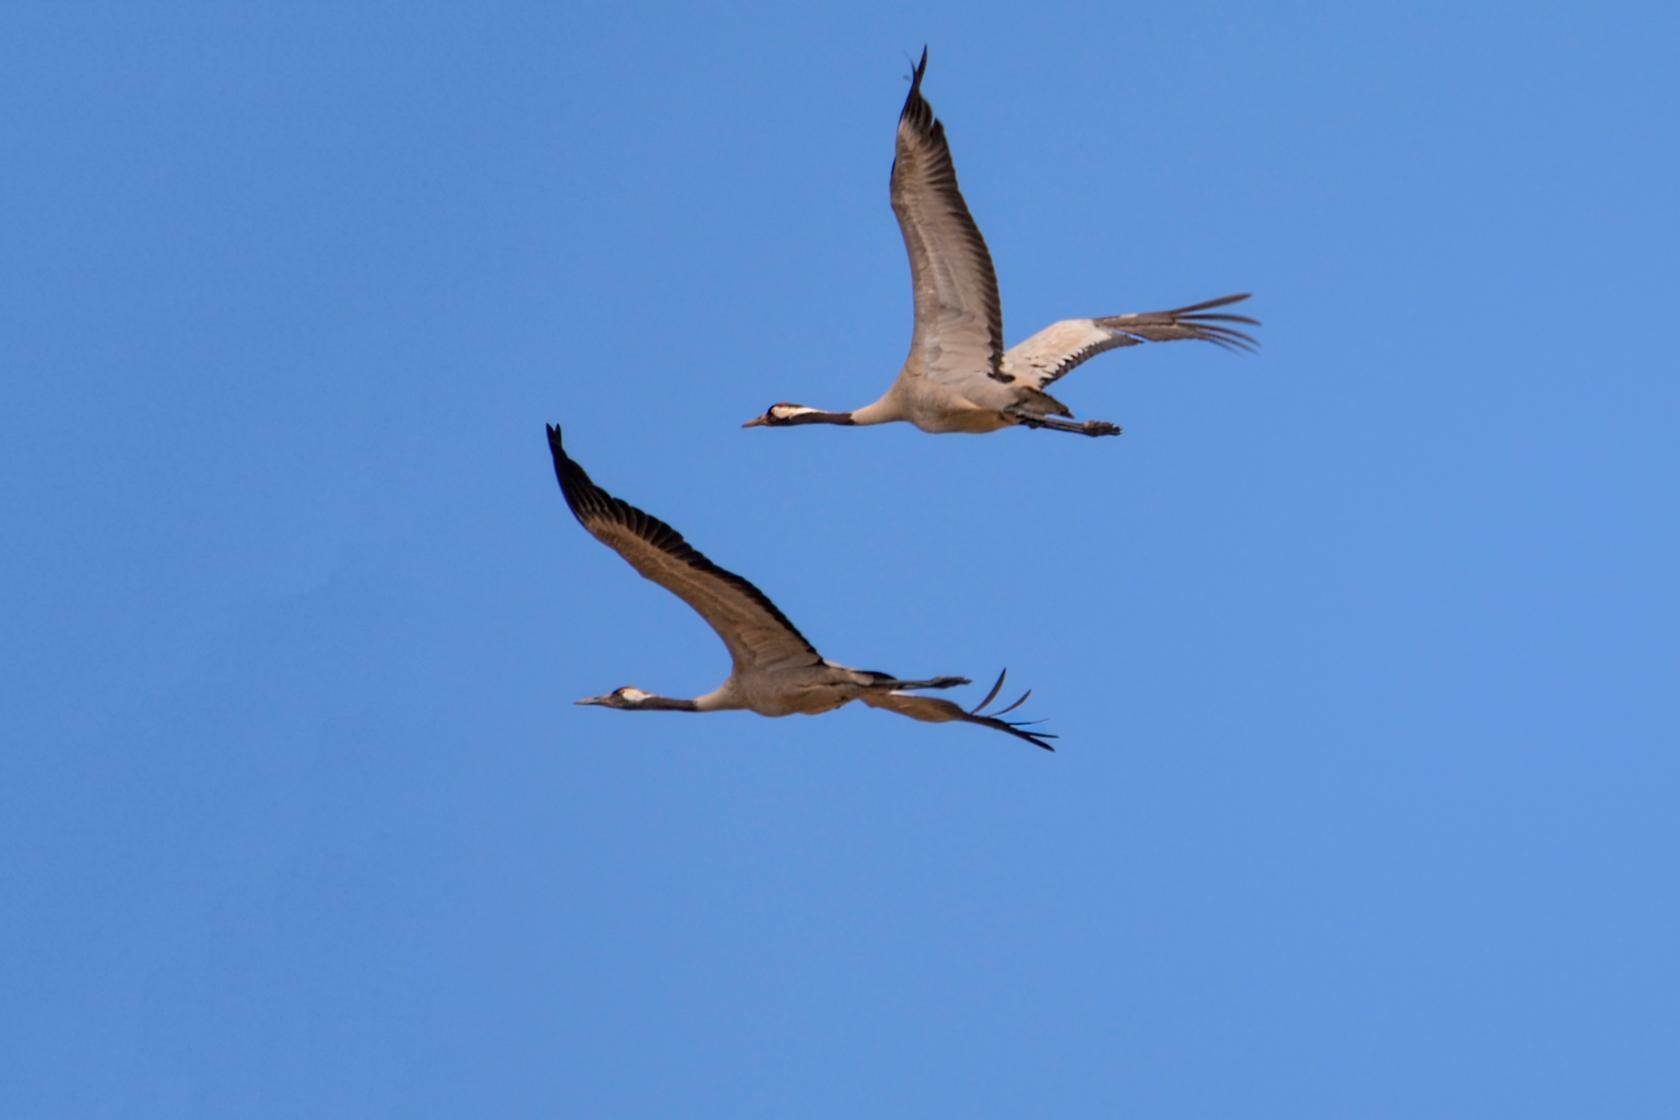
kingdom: Animalia
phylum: Chordata
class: Aves
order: Gruiformes
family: Gruidae
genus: Grus
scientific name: Grus grus
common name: Common crane
